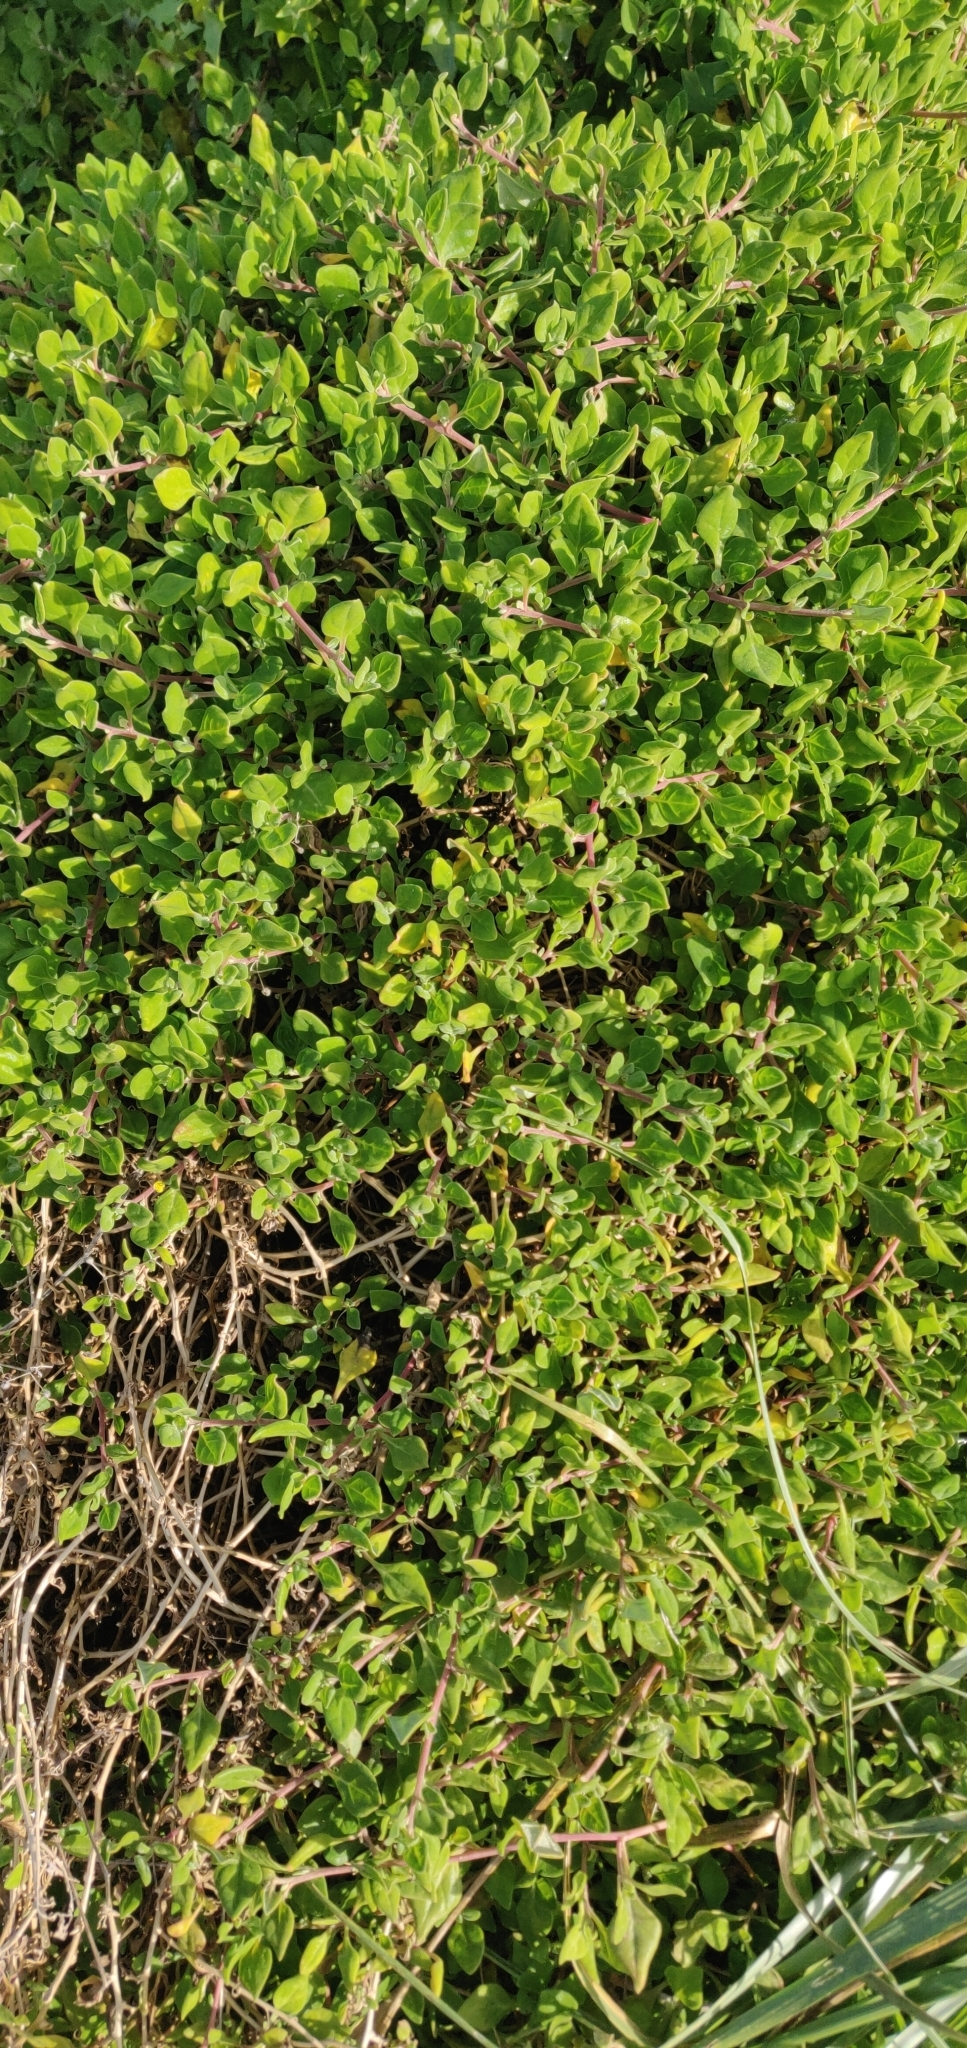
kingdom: Plantae
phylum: Tracheophyta
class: Magnoliopsida
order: Caryophyllales
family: Aizoaceae
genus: Tetragonia
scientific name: Tetragonia implexicoma
